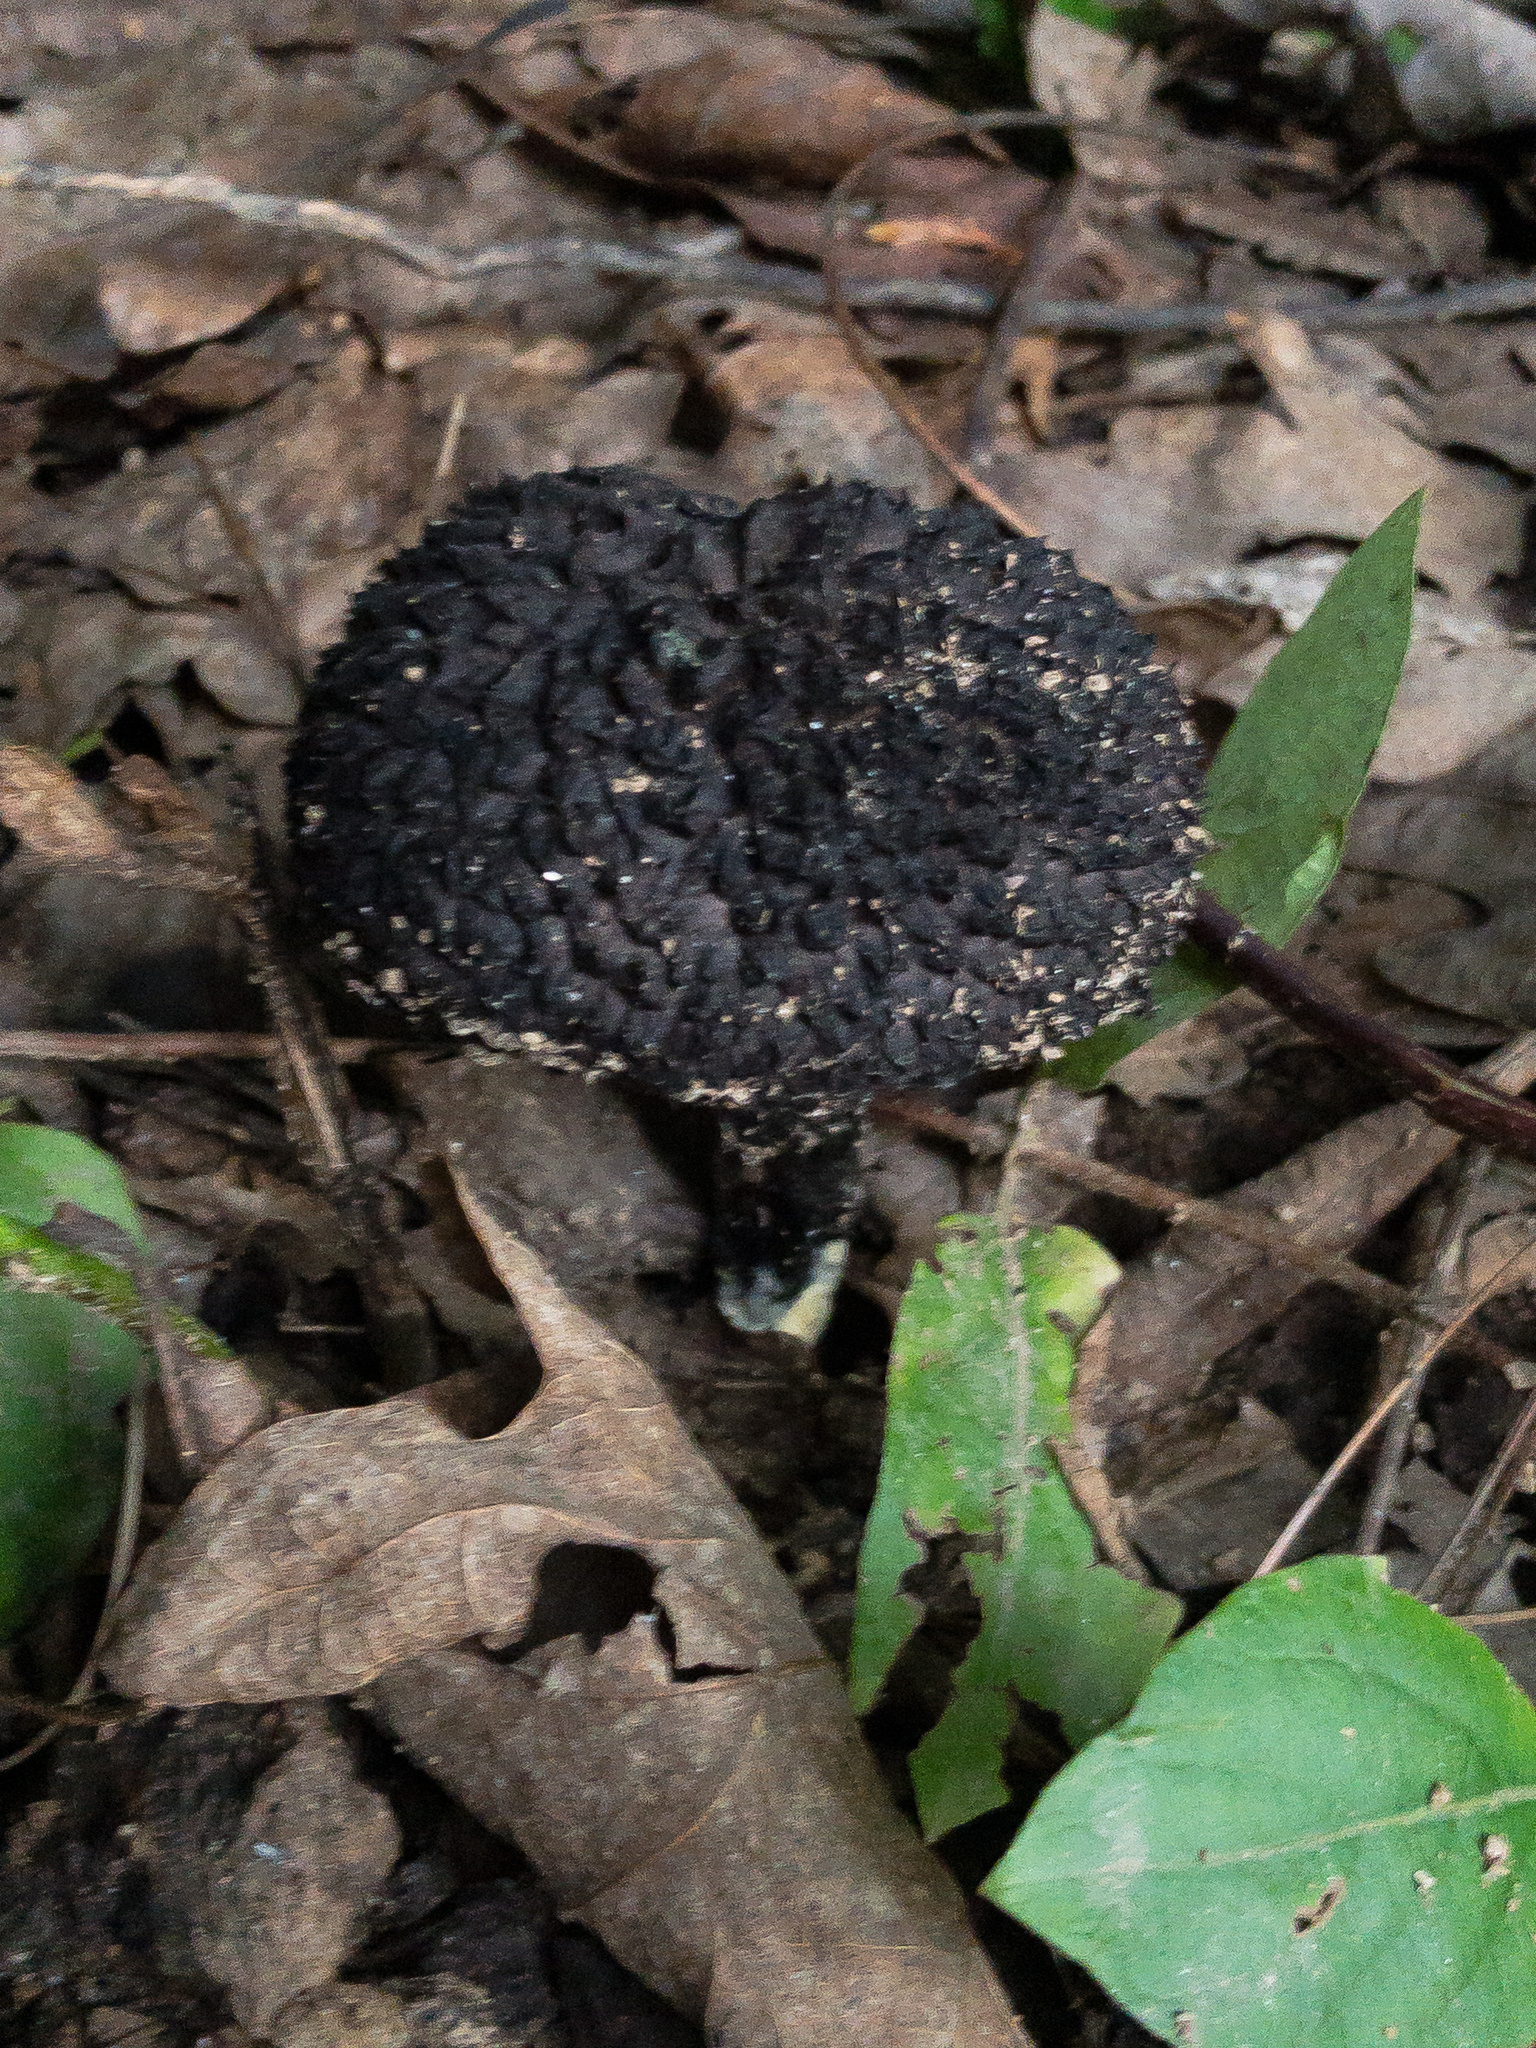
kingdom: Fungi
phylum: Basidiomycota
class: Agaricomycetes
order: Boletales
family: Boletaceae
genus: Strobilomyces
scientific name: Strobilomyces confusus
